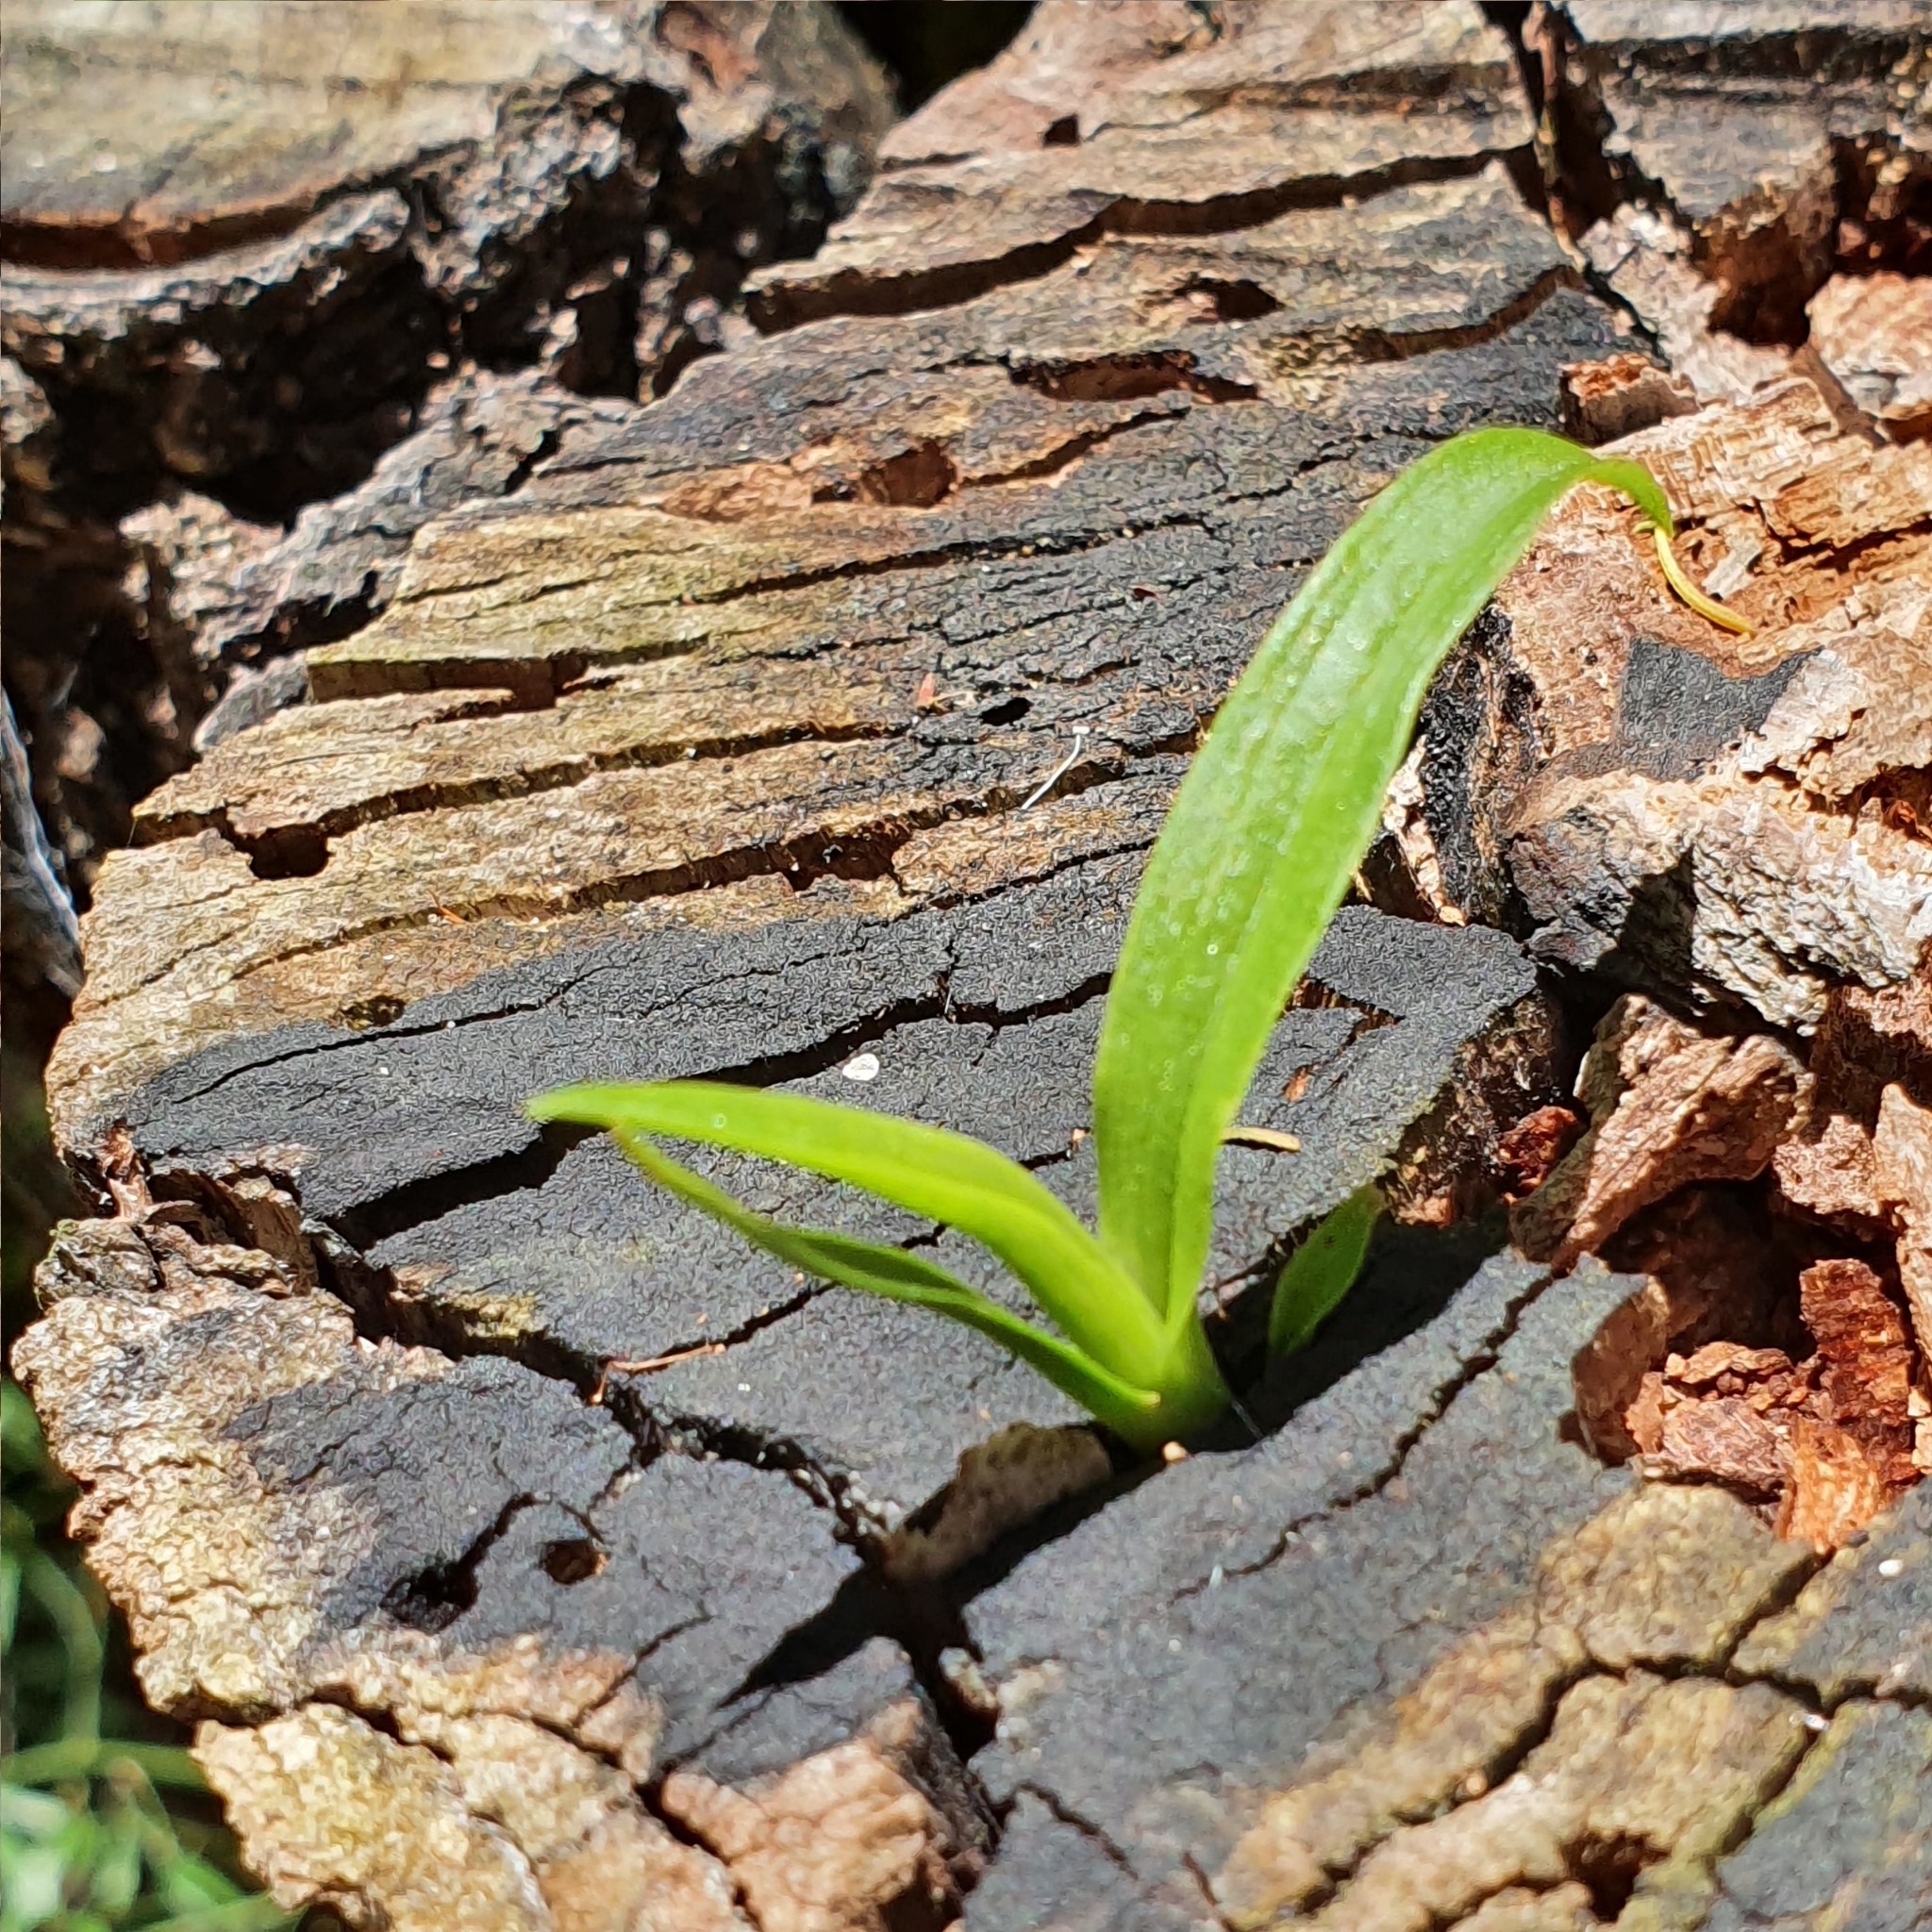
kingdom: Plantae
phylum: Tracheophyta
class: Liliopsida
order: Asparagales
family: Orchidaceae
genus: Cymbidium
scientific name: Cymbidium suave
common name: Snake orchid
